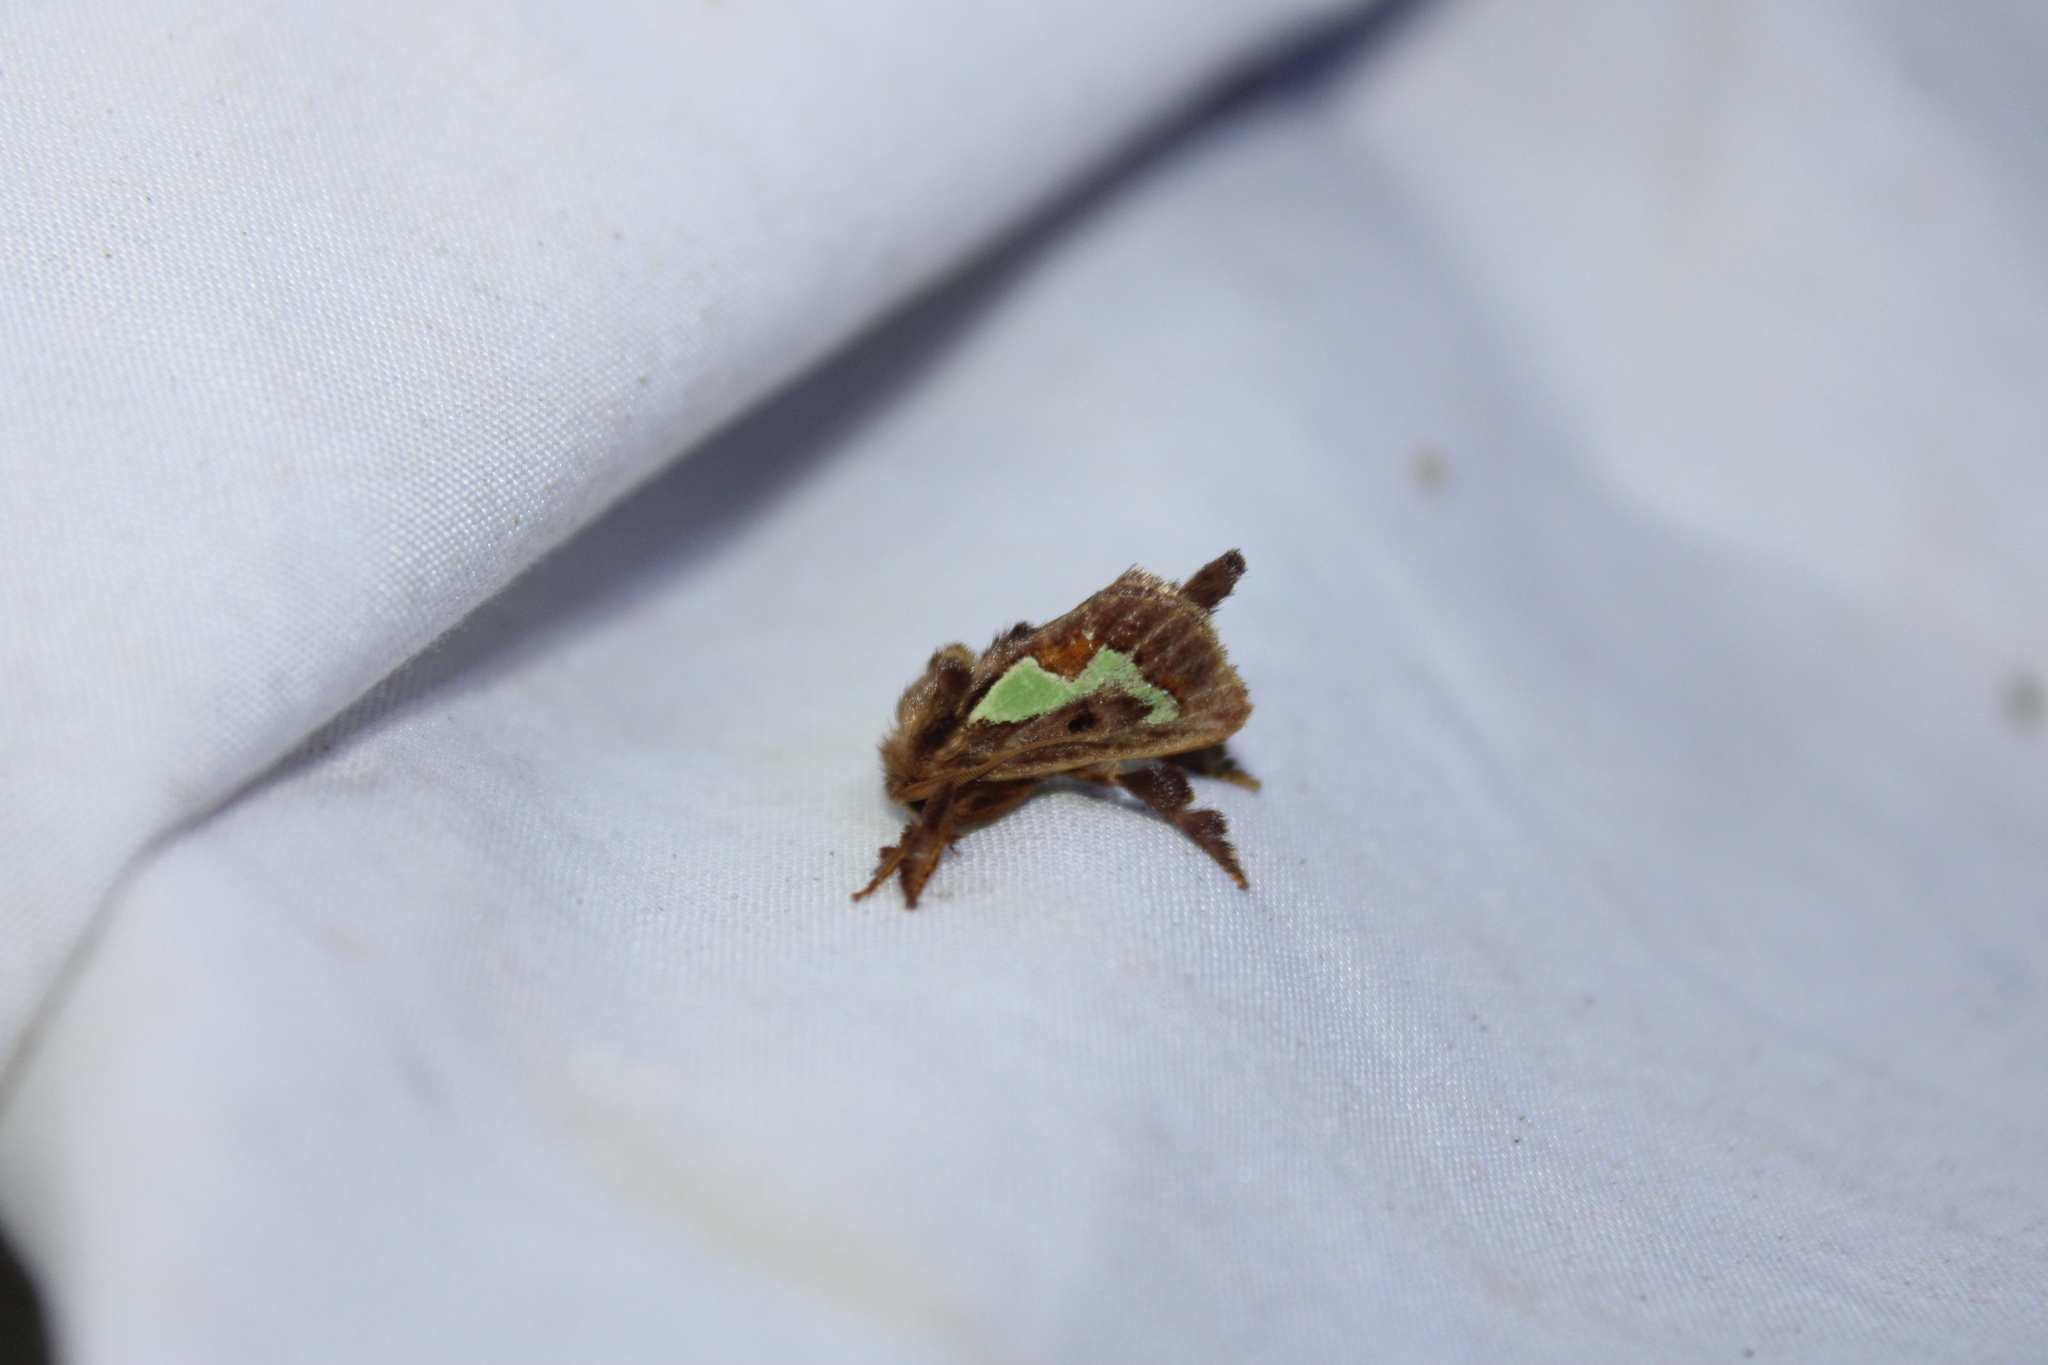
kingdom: Animalia
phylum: Arthropoda
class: Insecta
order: Lepidoptera
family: Limacodidae
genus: Euclea
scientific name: Euclea delphinii
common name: Spiny oak-slug moth
